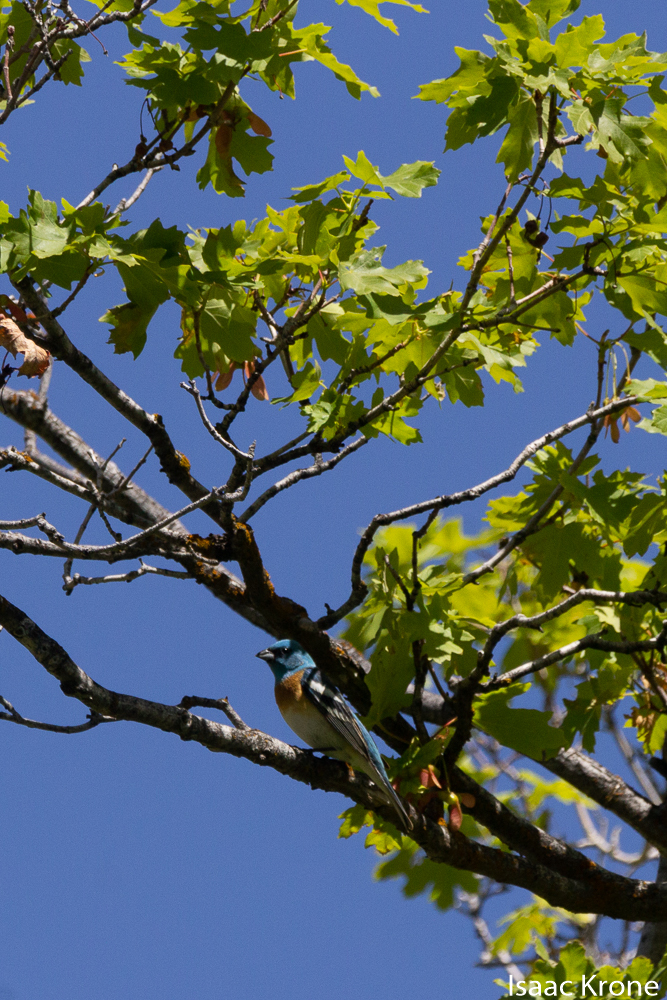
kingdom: Animalia
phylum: Chordata
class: Aves
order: Passeriformes
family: Cardinalidae
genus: Passerina
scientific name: Passerina amoena
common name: Lazuli bunting
